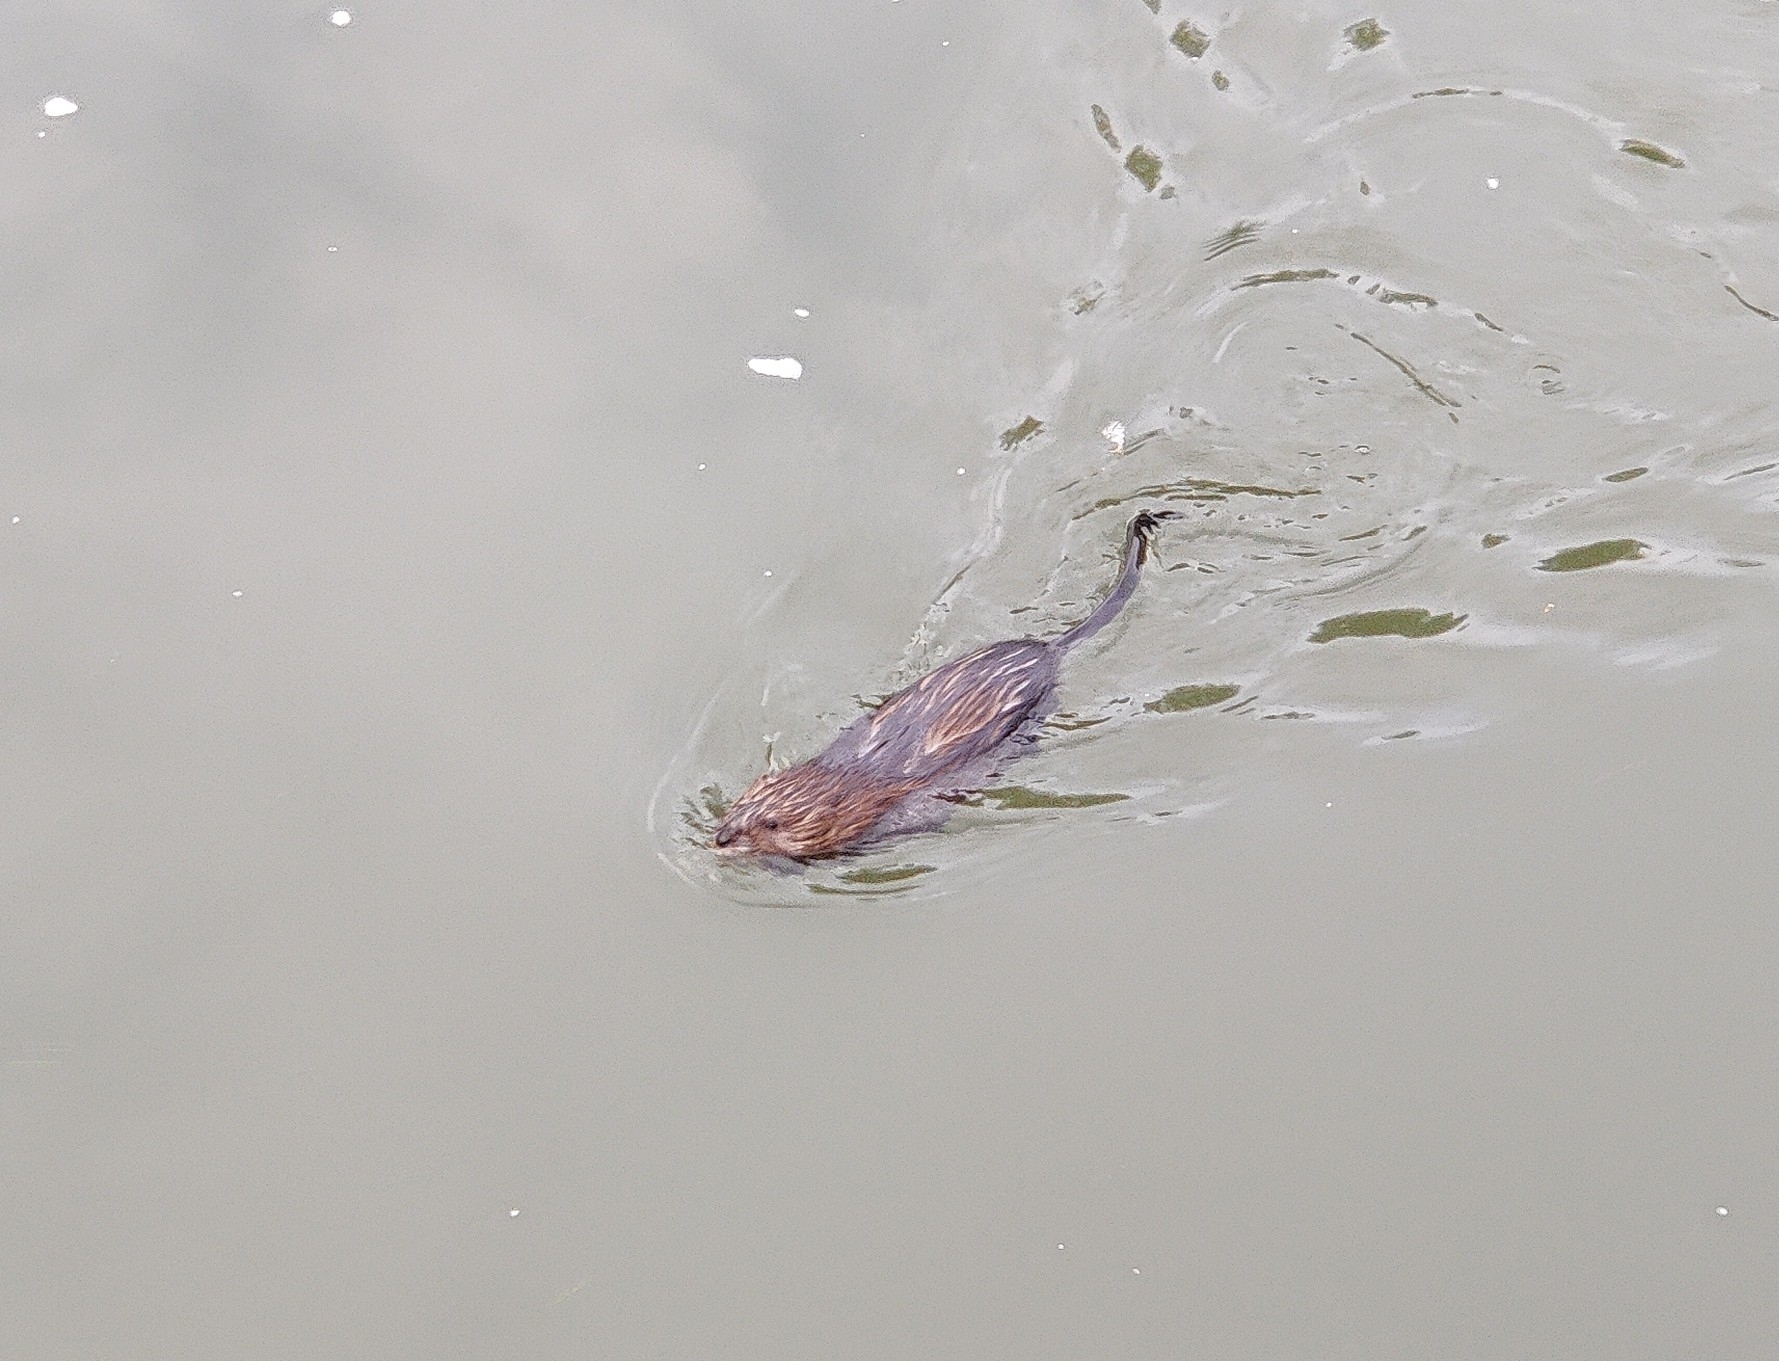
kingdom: Animalia
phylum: Chordata
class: Mammalia
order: Rodentia
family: Cricetidae
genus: Ondatra
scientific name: Ondatra zibethicus
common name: Muskrat
